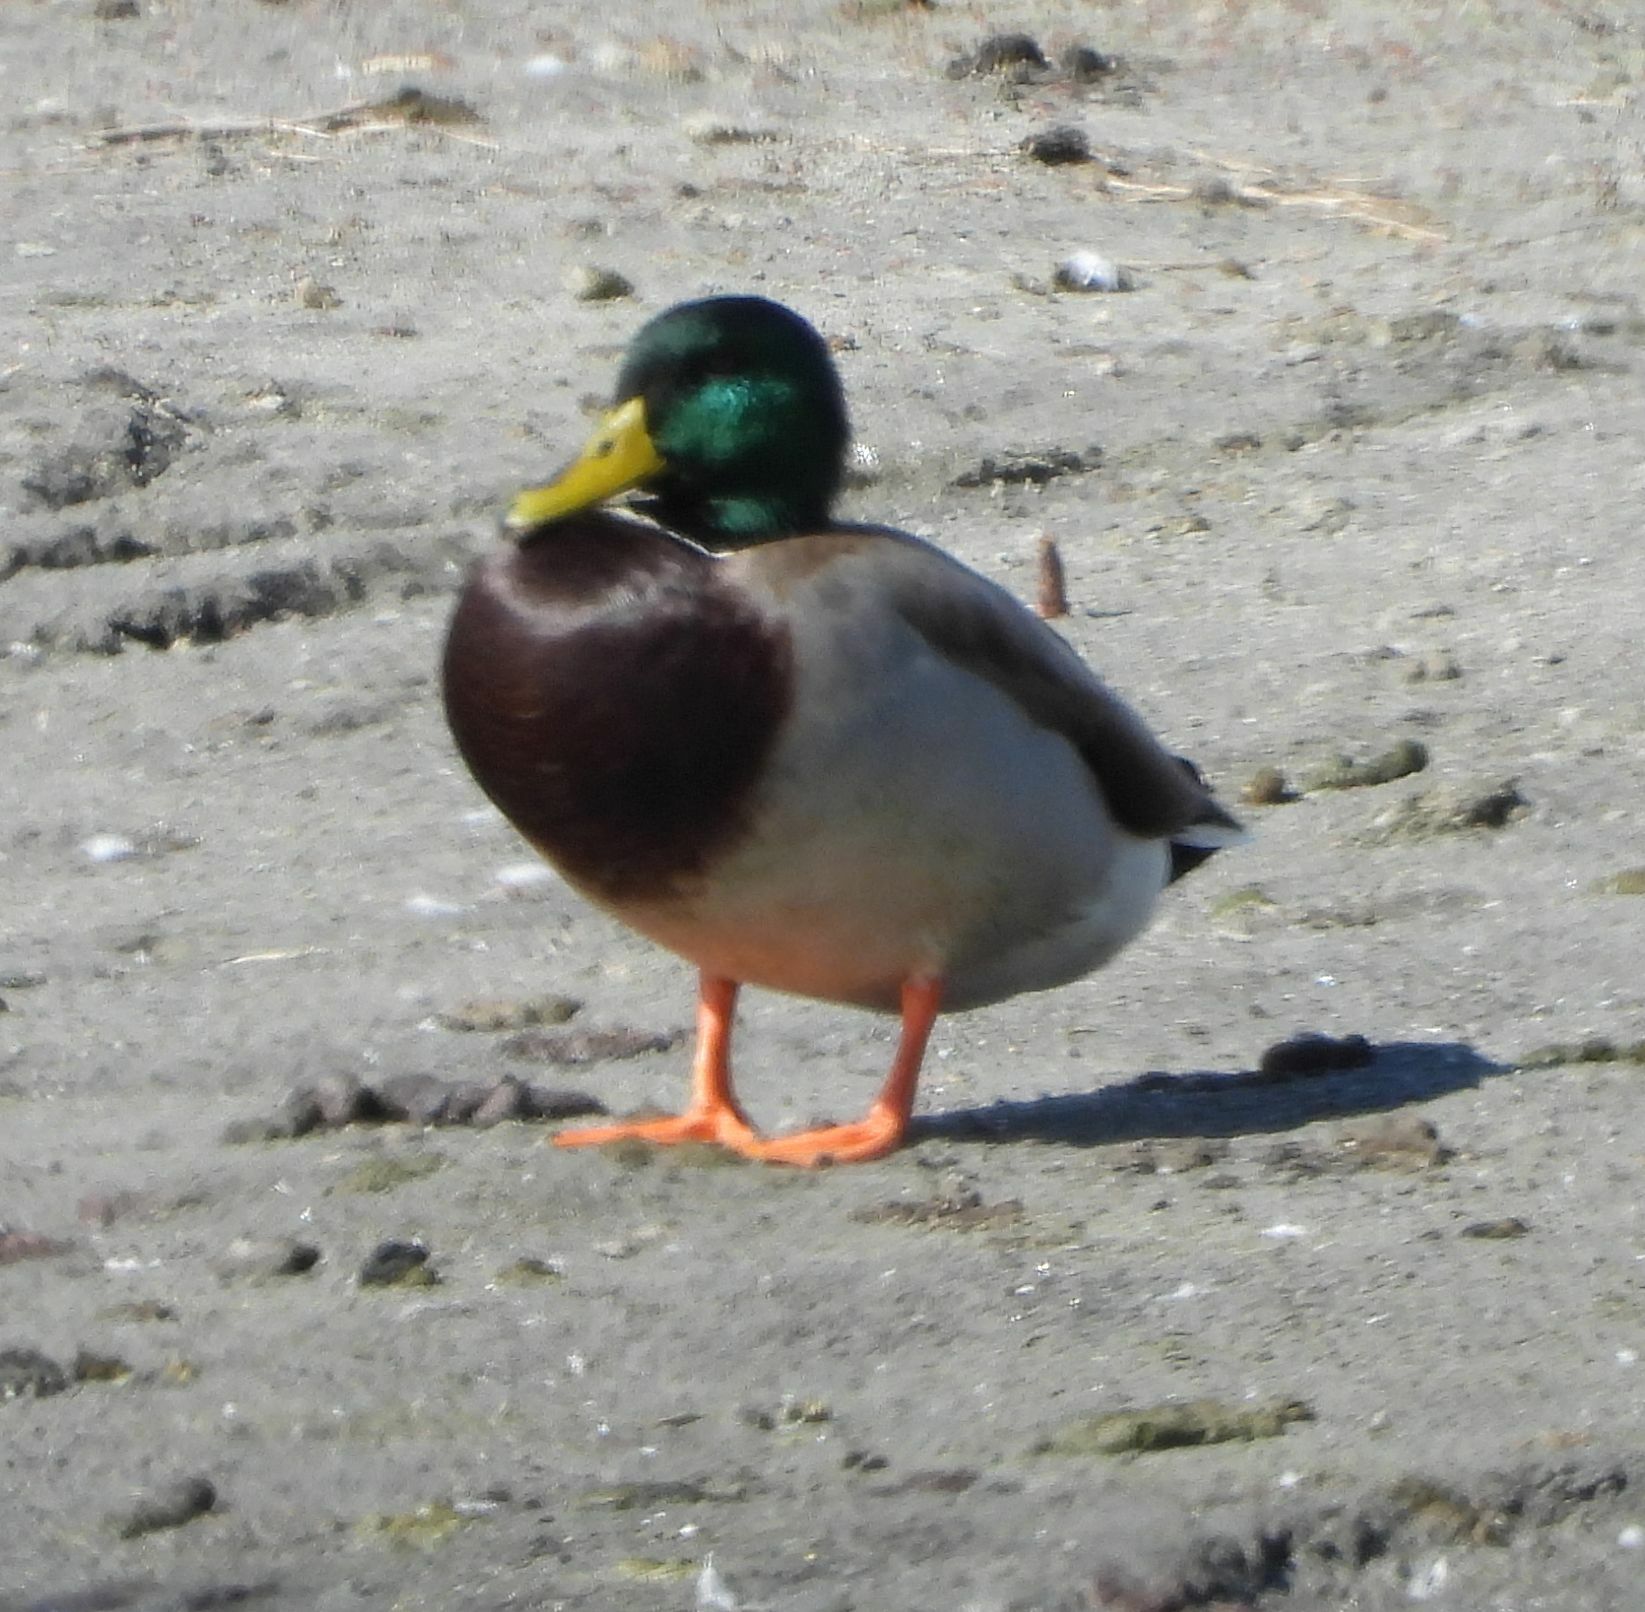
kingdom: Animalia
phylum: Chordata
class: Aves
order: Anseriformes
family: Anatidae
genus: Anas
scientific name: Anas platyrhynchos
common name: Mallard
